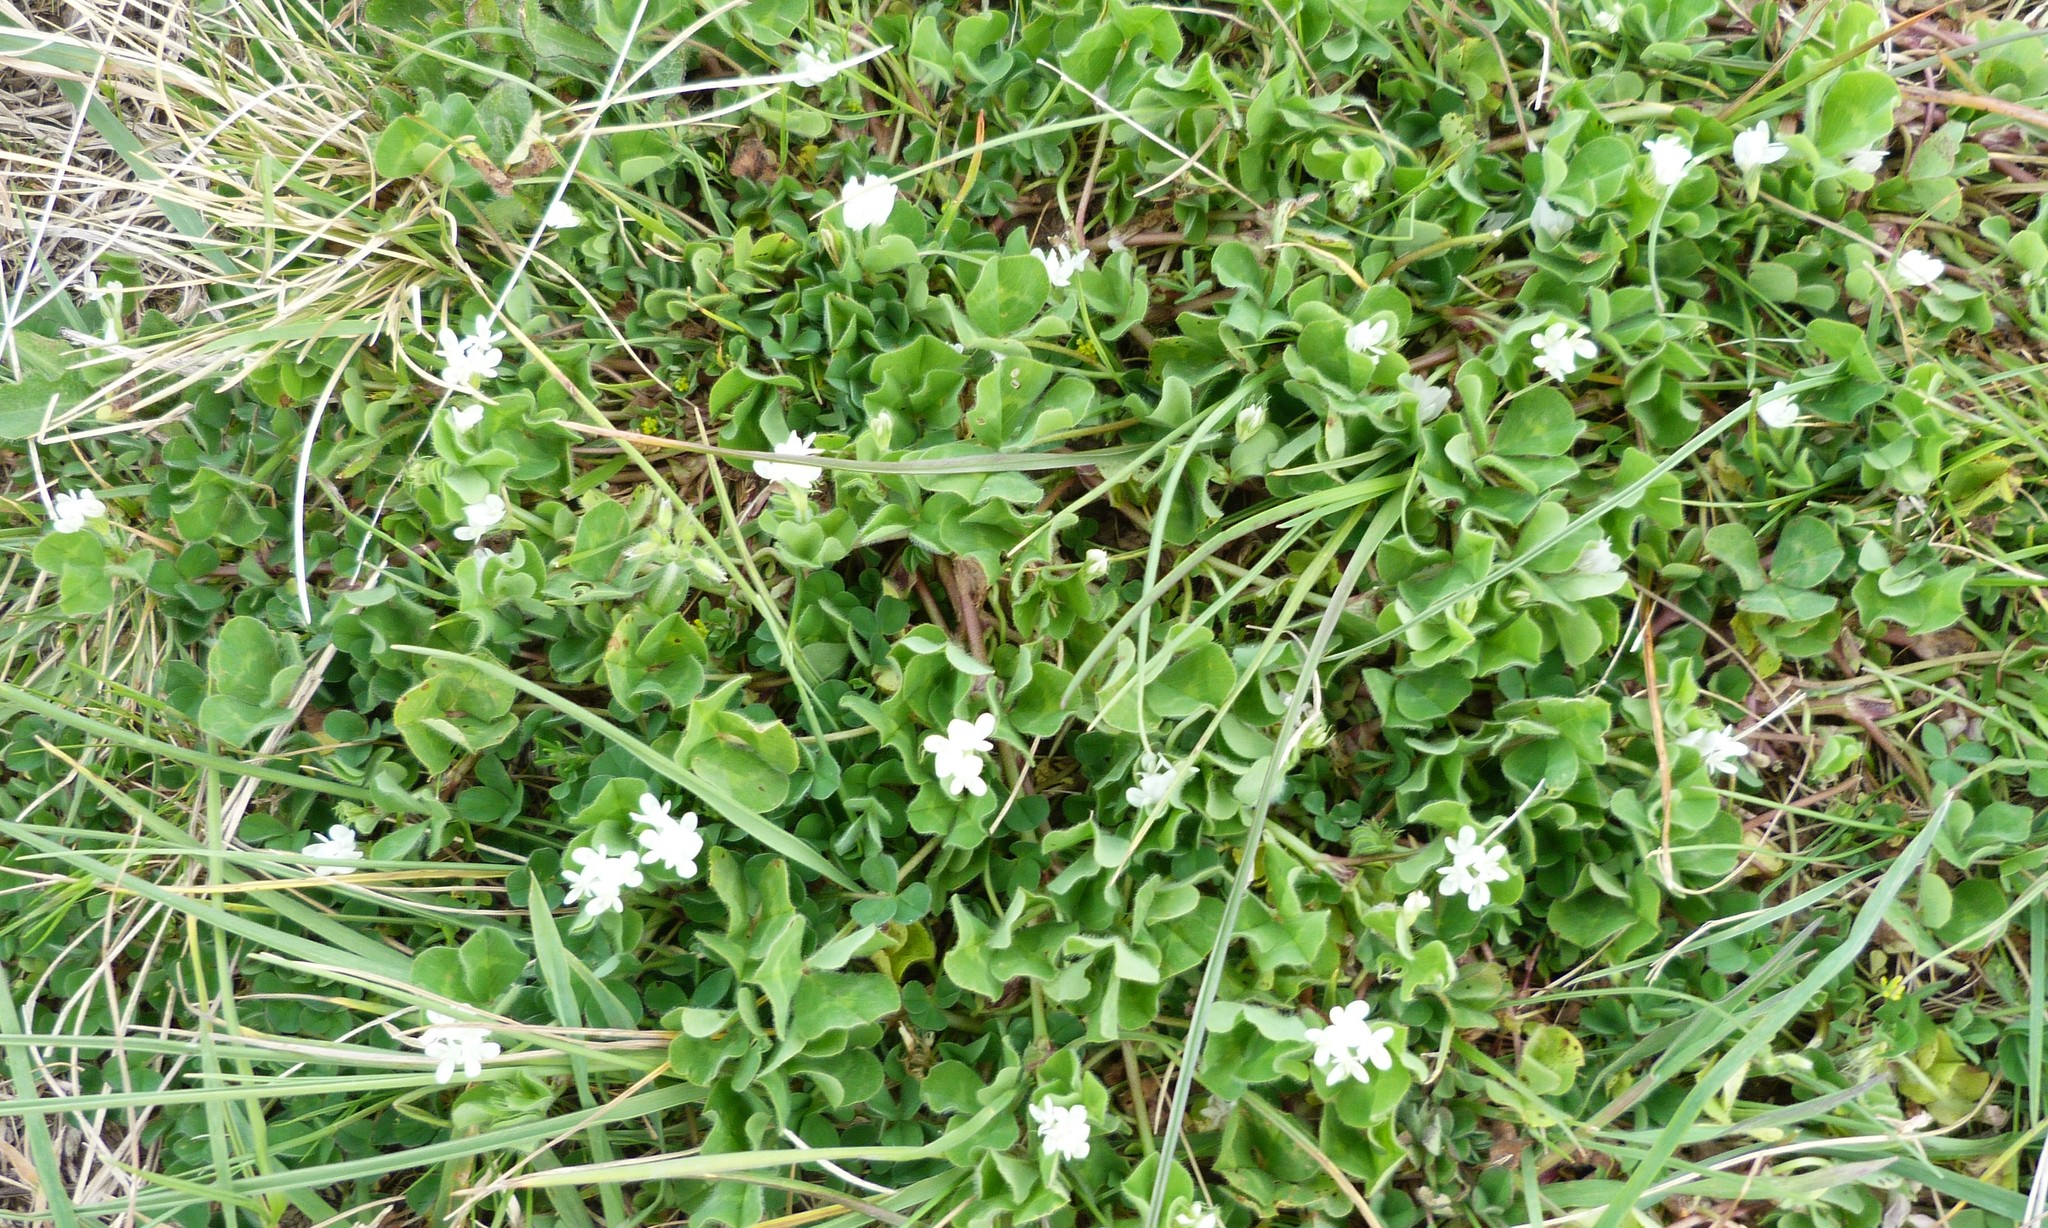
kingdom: Plantae
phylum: Tracheophyta
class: Magnoliopsida
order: Fabales
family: Fabaceae
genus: Trifolium
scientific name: Trifolium subterraneum
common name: Subterranean clover
